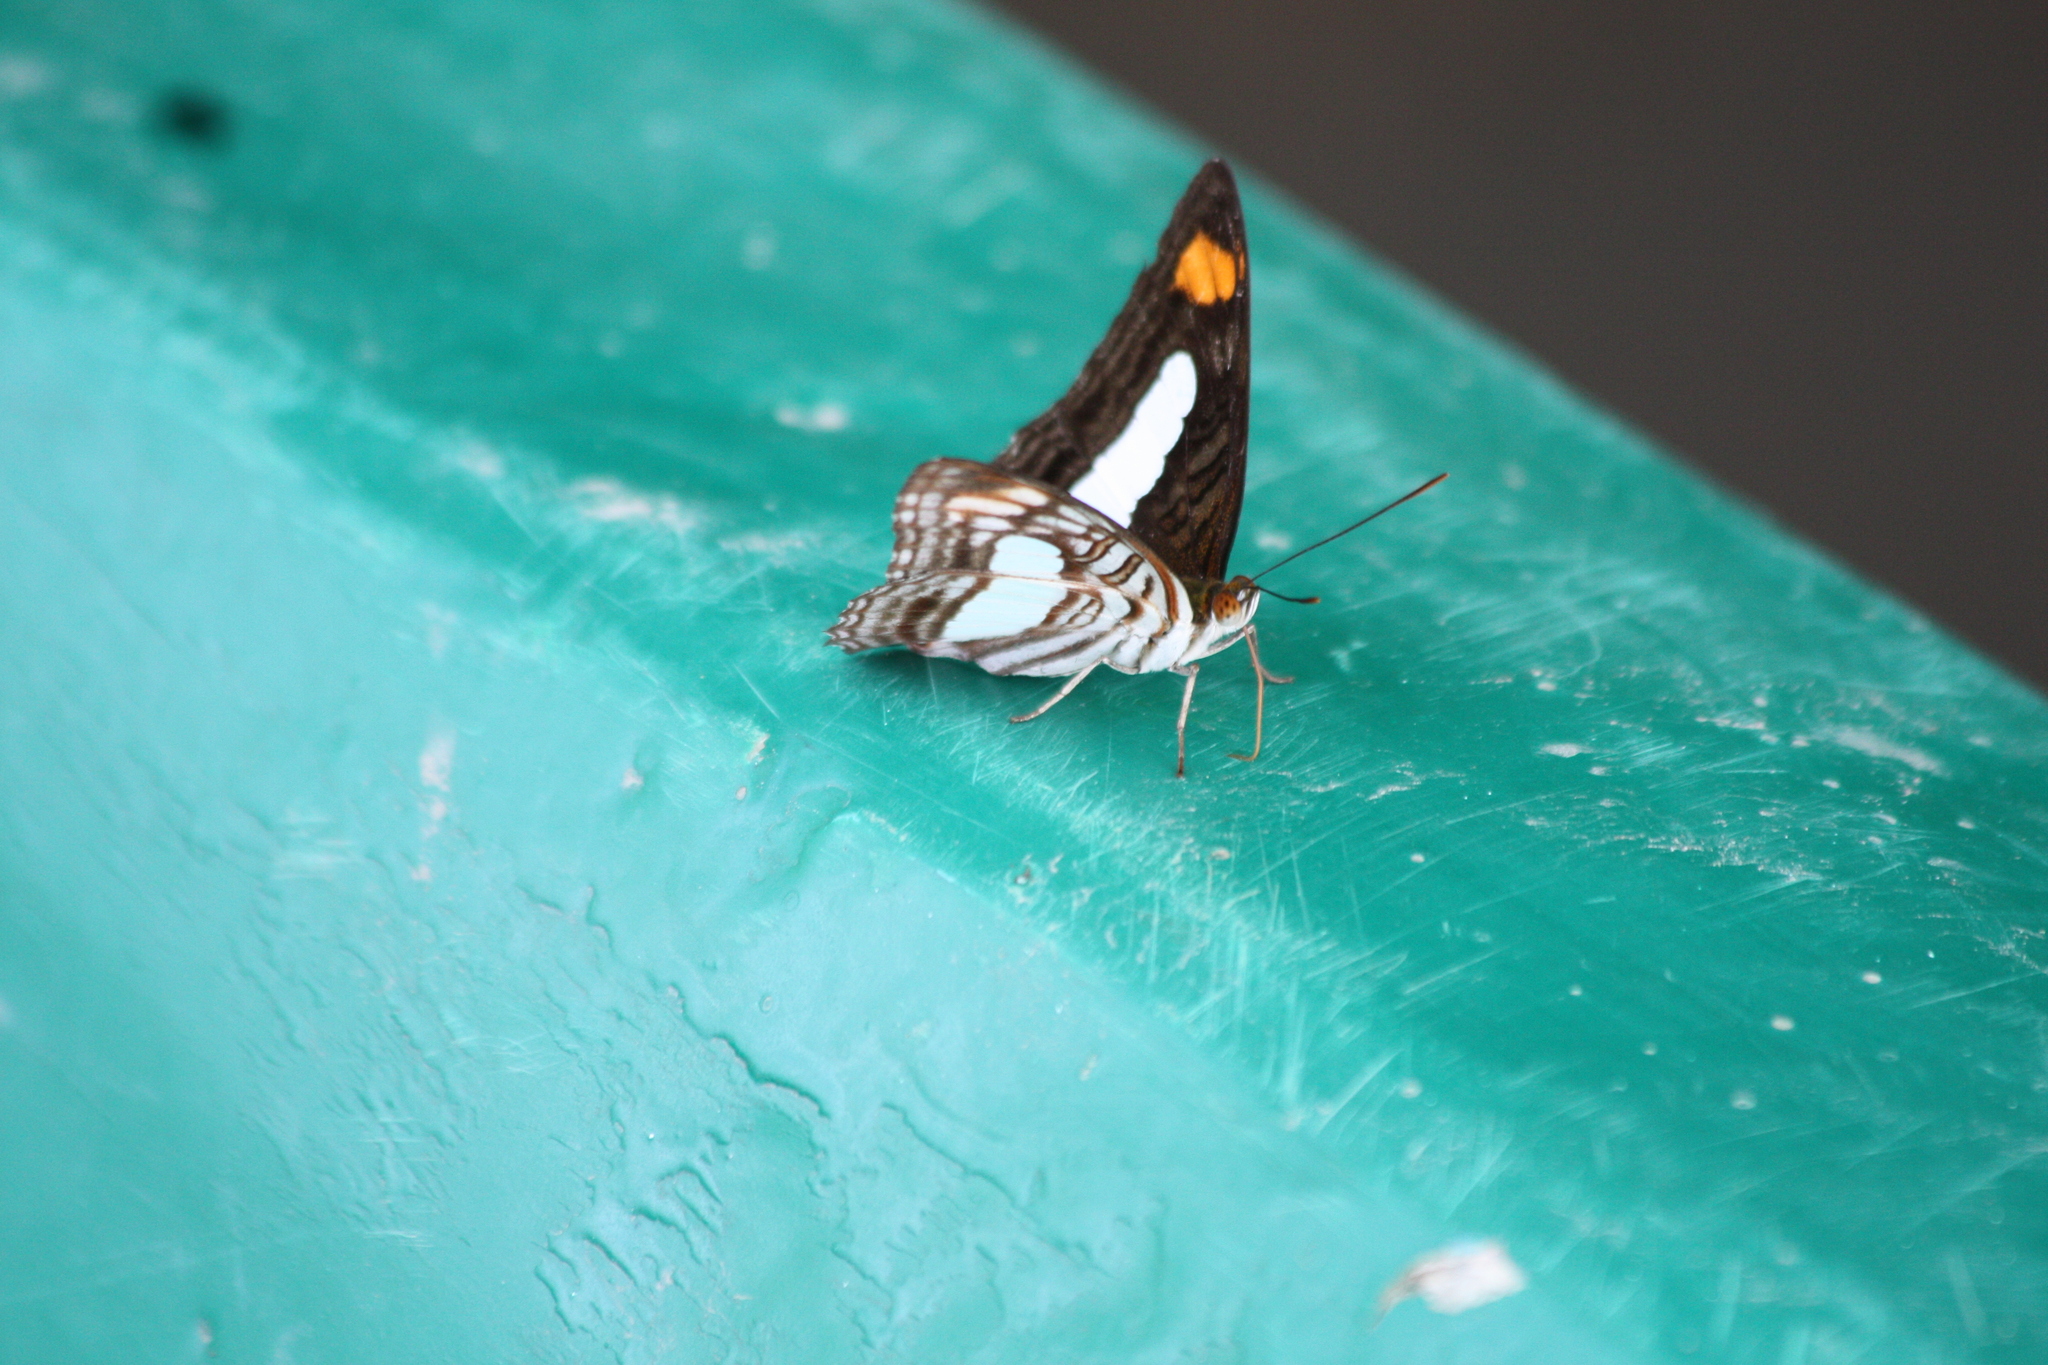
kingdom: Animalia
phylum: Arthropoda
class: Insecta
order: Lepidoptera
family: Nymphalidae
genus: Limenitis
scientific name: Limenitis Adelpha iphiclus
